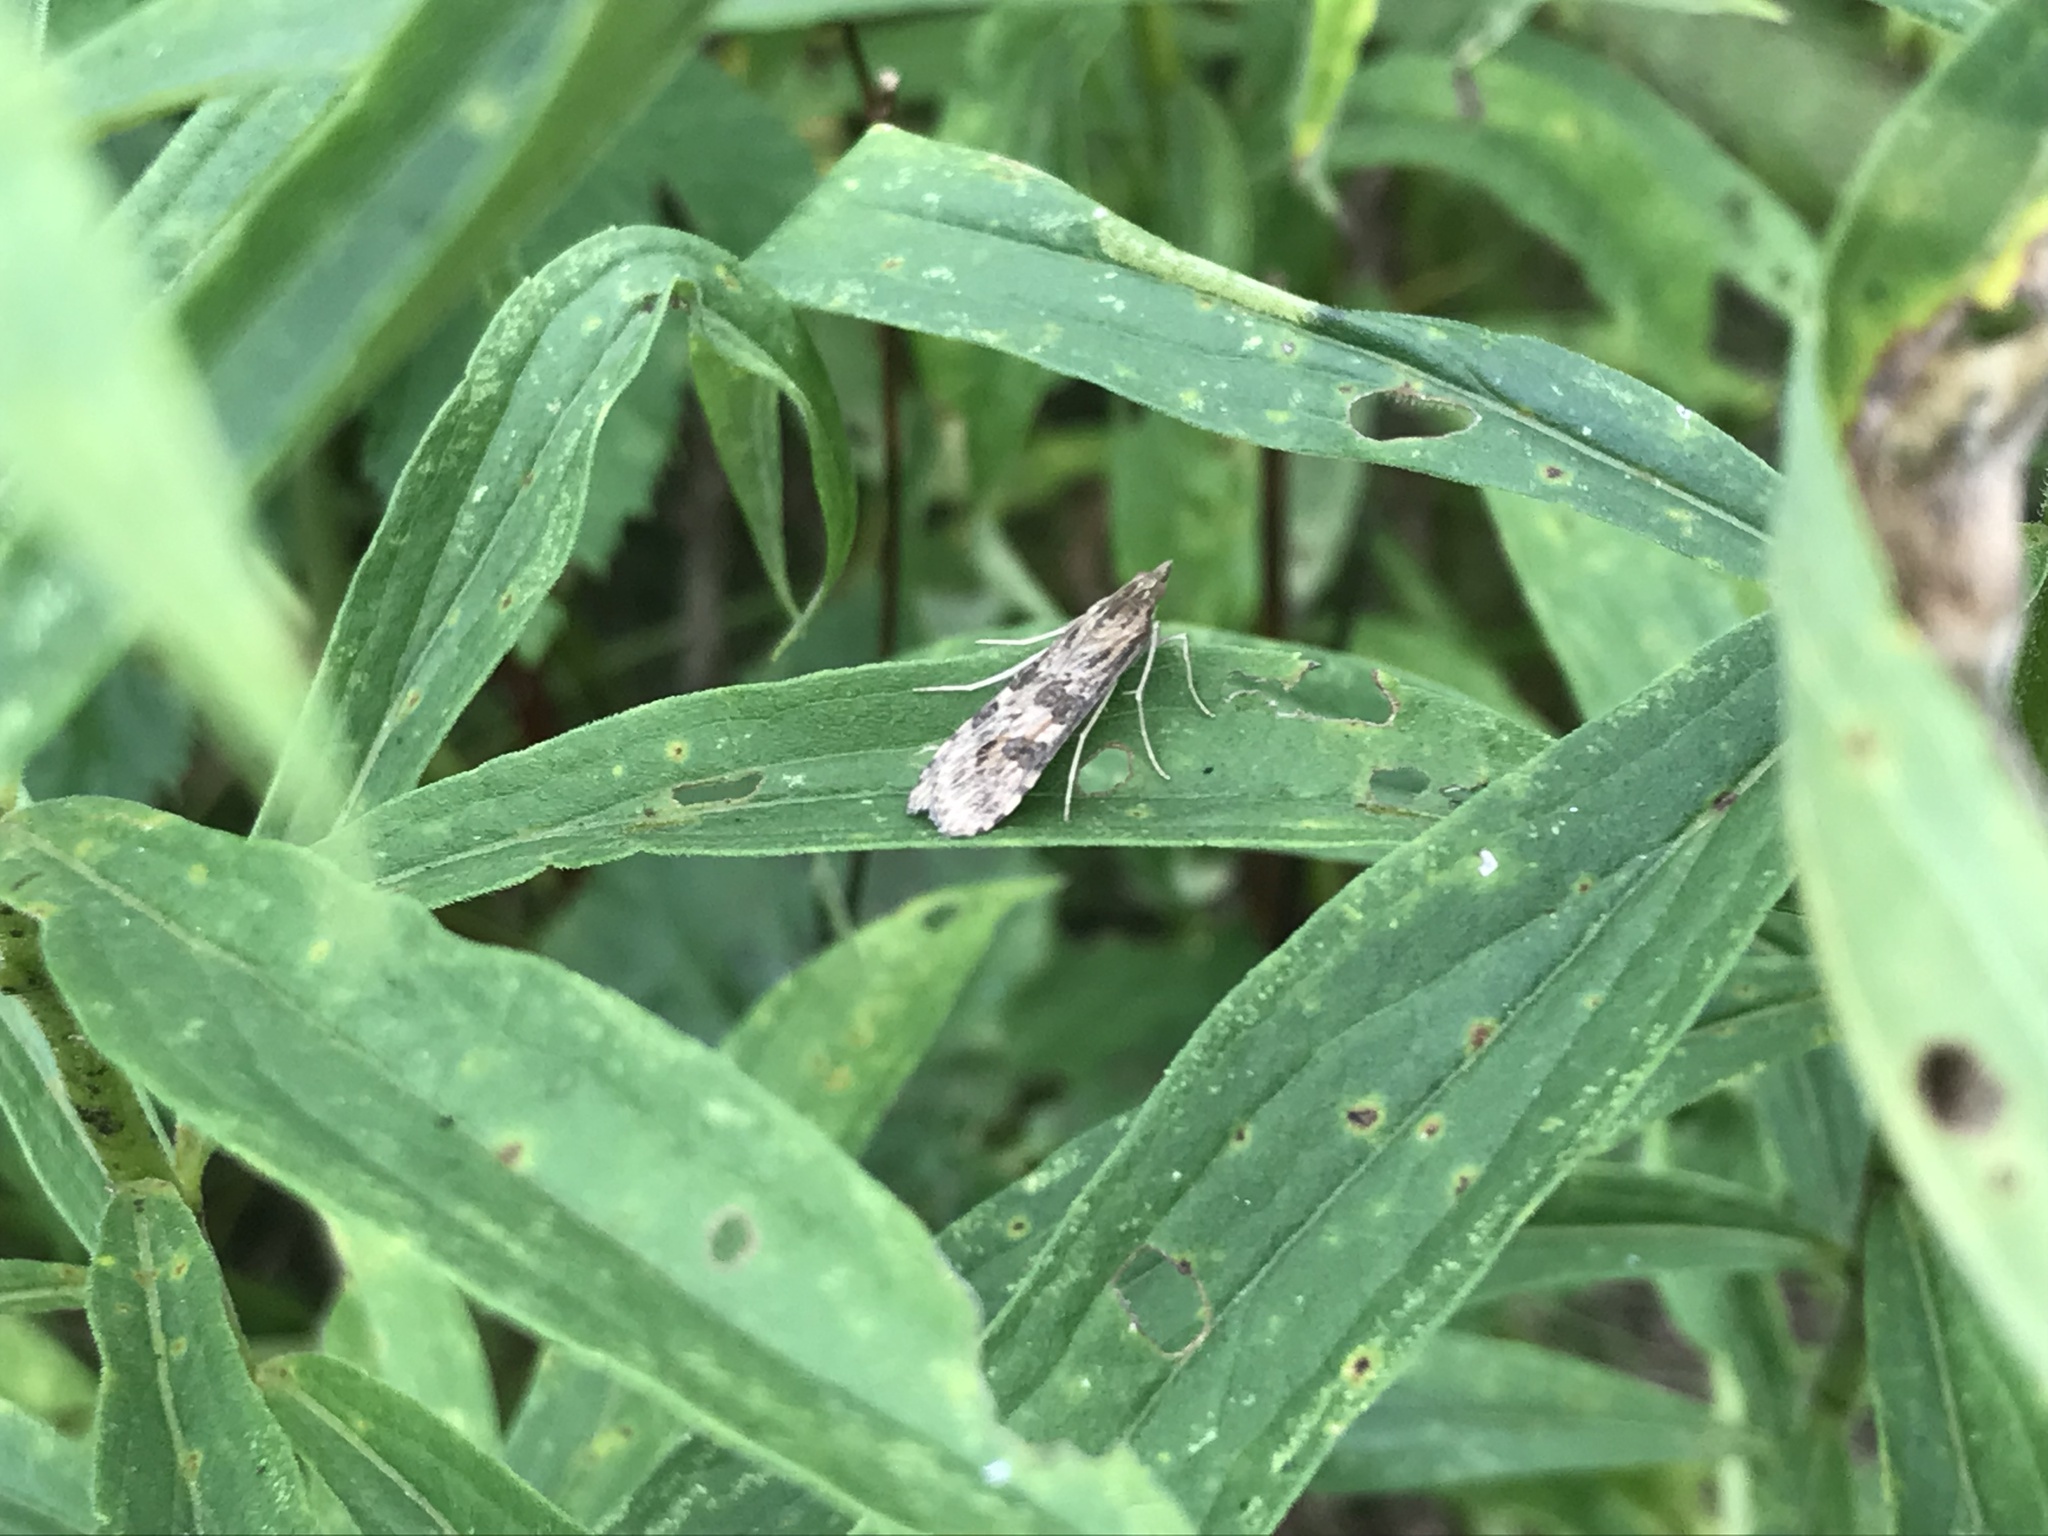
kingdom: Animalia
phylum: Arthropoda
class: Insecta
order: Lepidoptera
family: Crambidae
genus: Nomophila
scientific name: Nomophila nearctica
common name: American rush veneer
